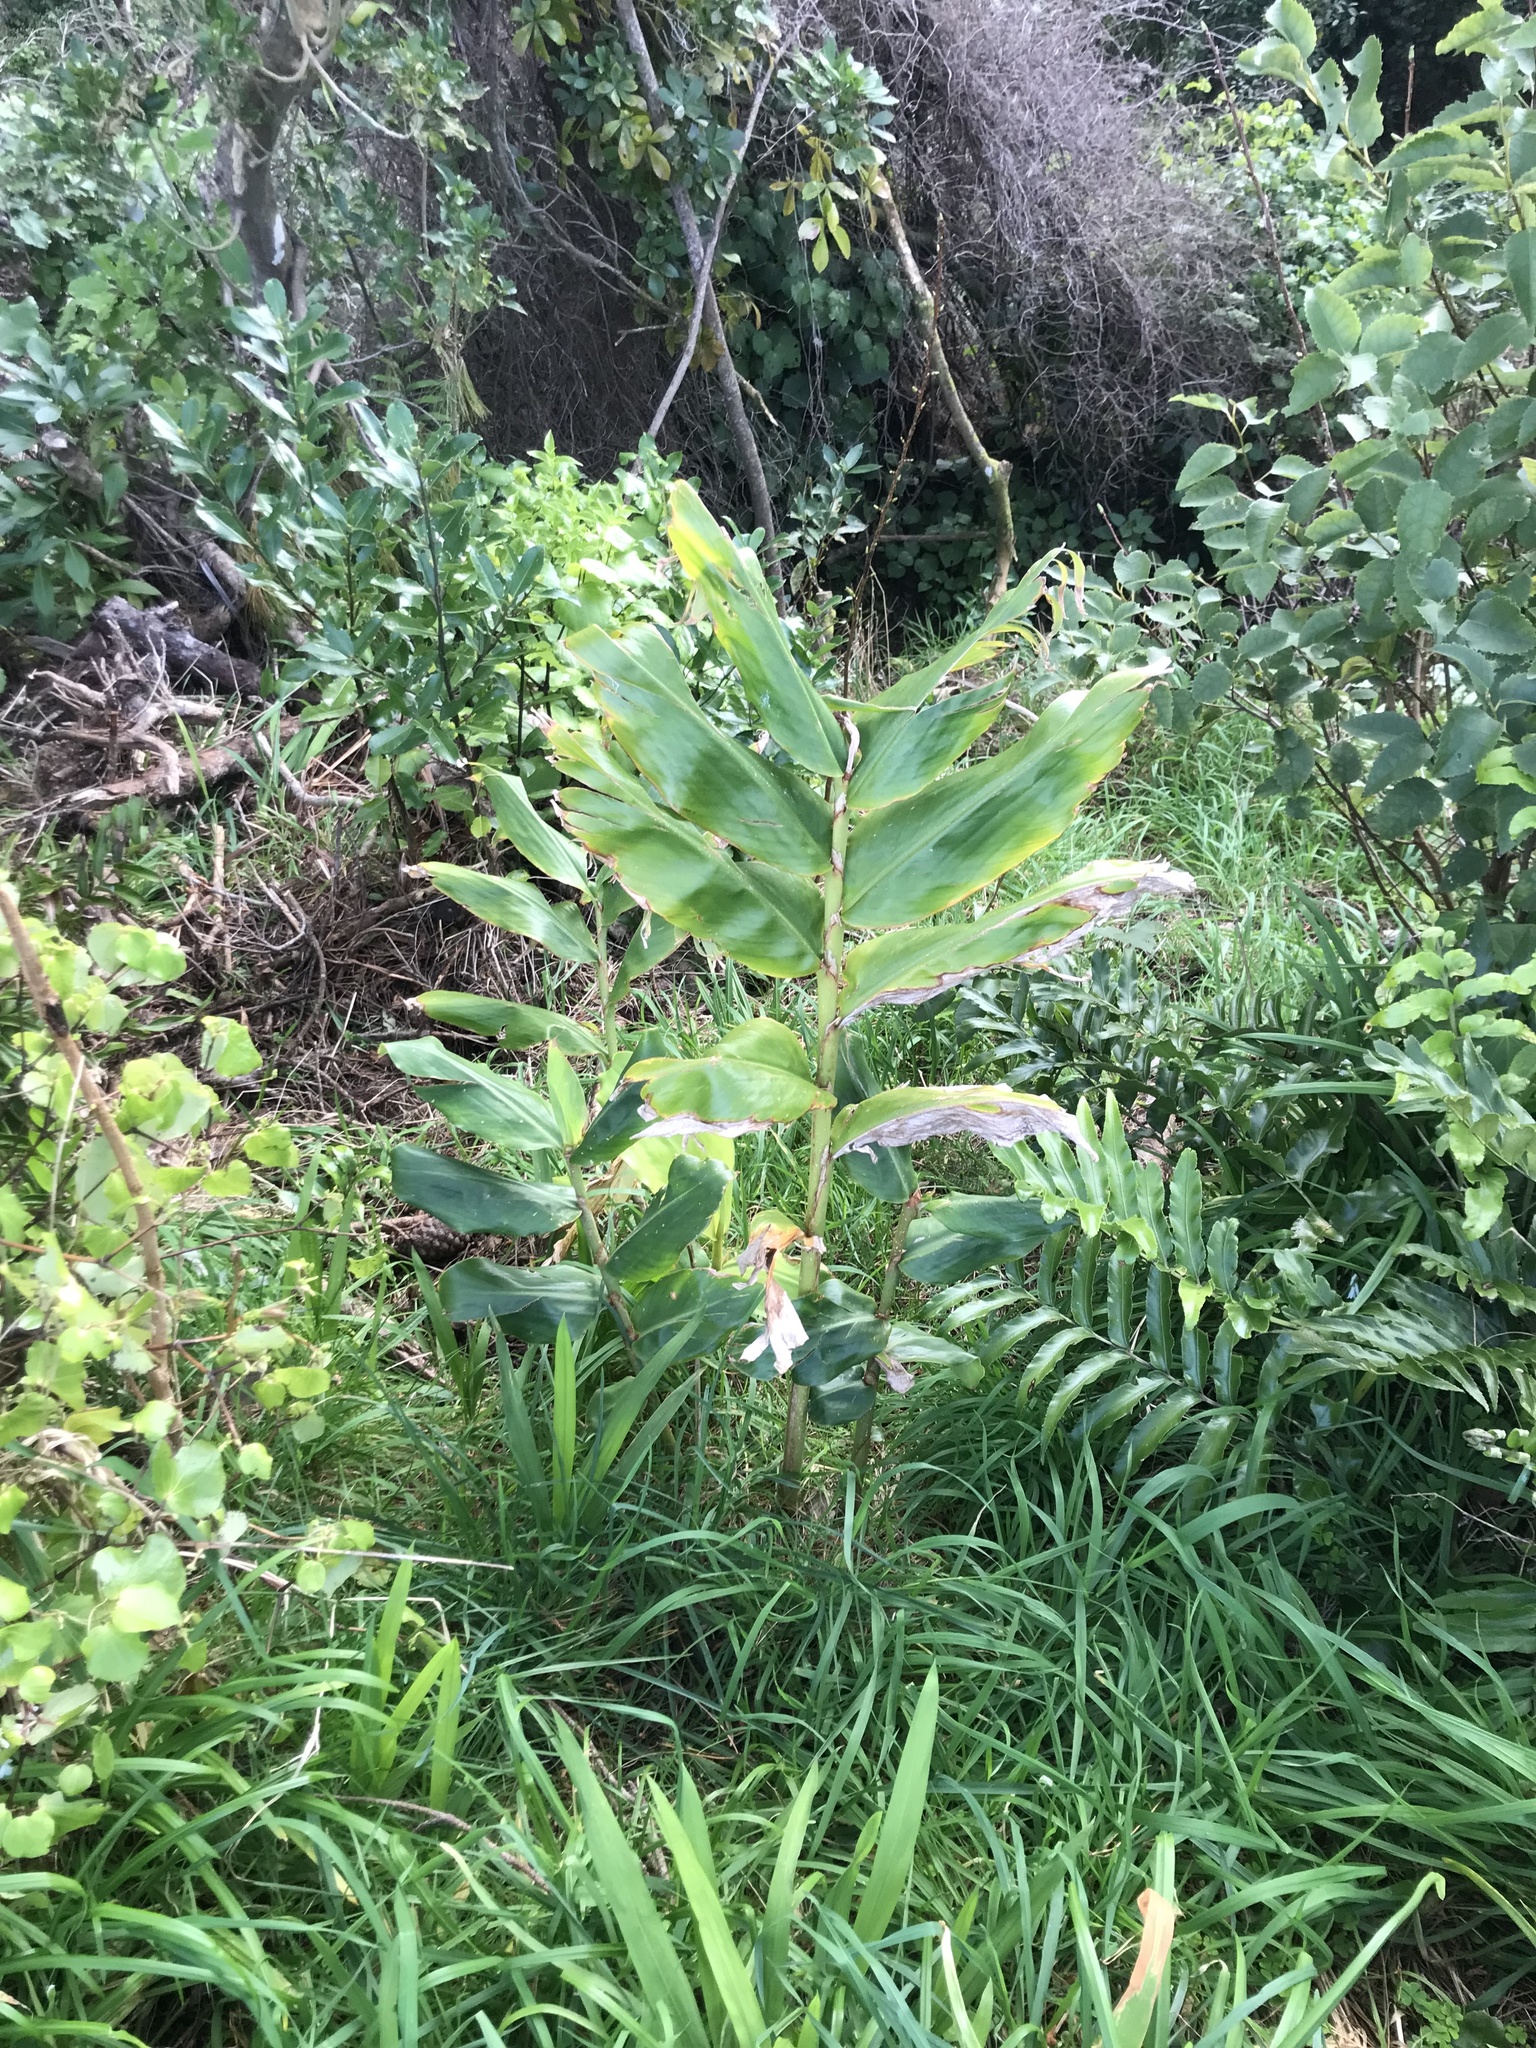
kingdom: Plantae
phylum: Tracheophyta
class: Liliopsida
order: Zingiberales
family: Zingiberaceae
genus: Hedychium
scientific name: Hedychium gardnerianum
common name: Himalayan ginger
